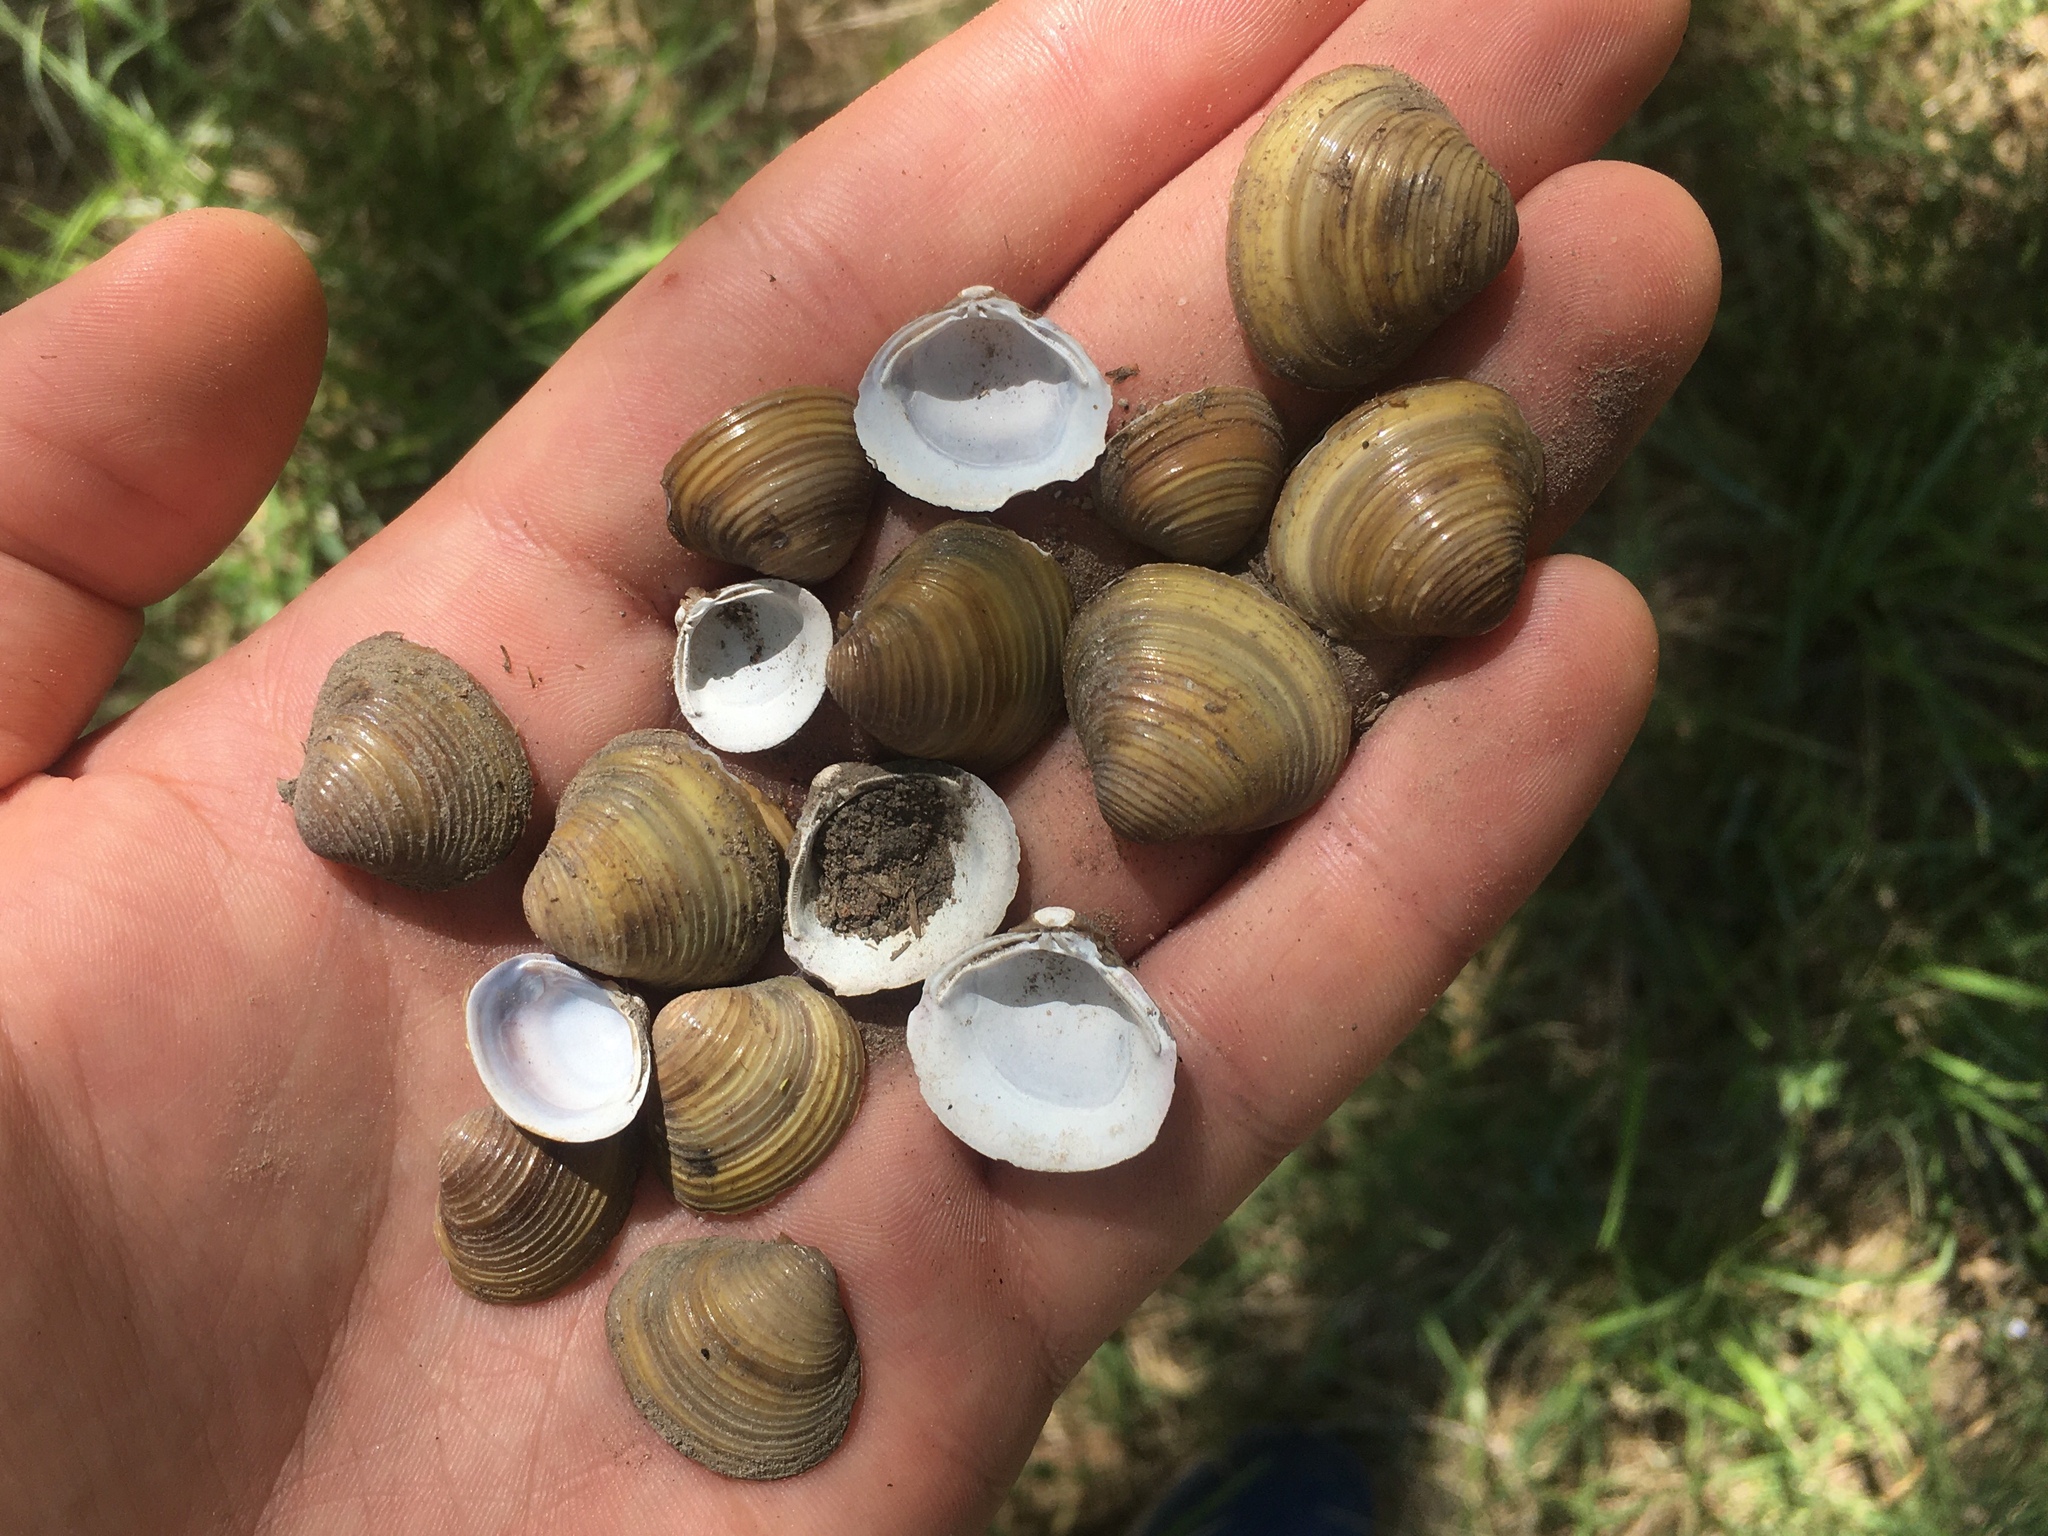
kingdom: Animalia
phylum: Mollusca
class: Bivalvia
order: Venerida
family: Cyrenidae
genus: Corbicula
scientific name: Corbicula fluminea
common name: Asian clam
